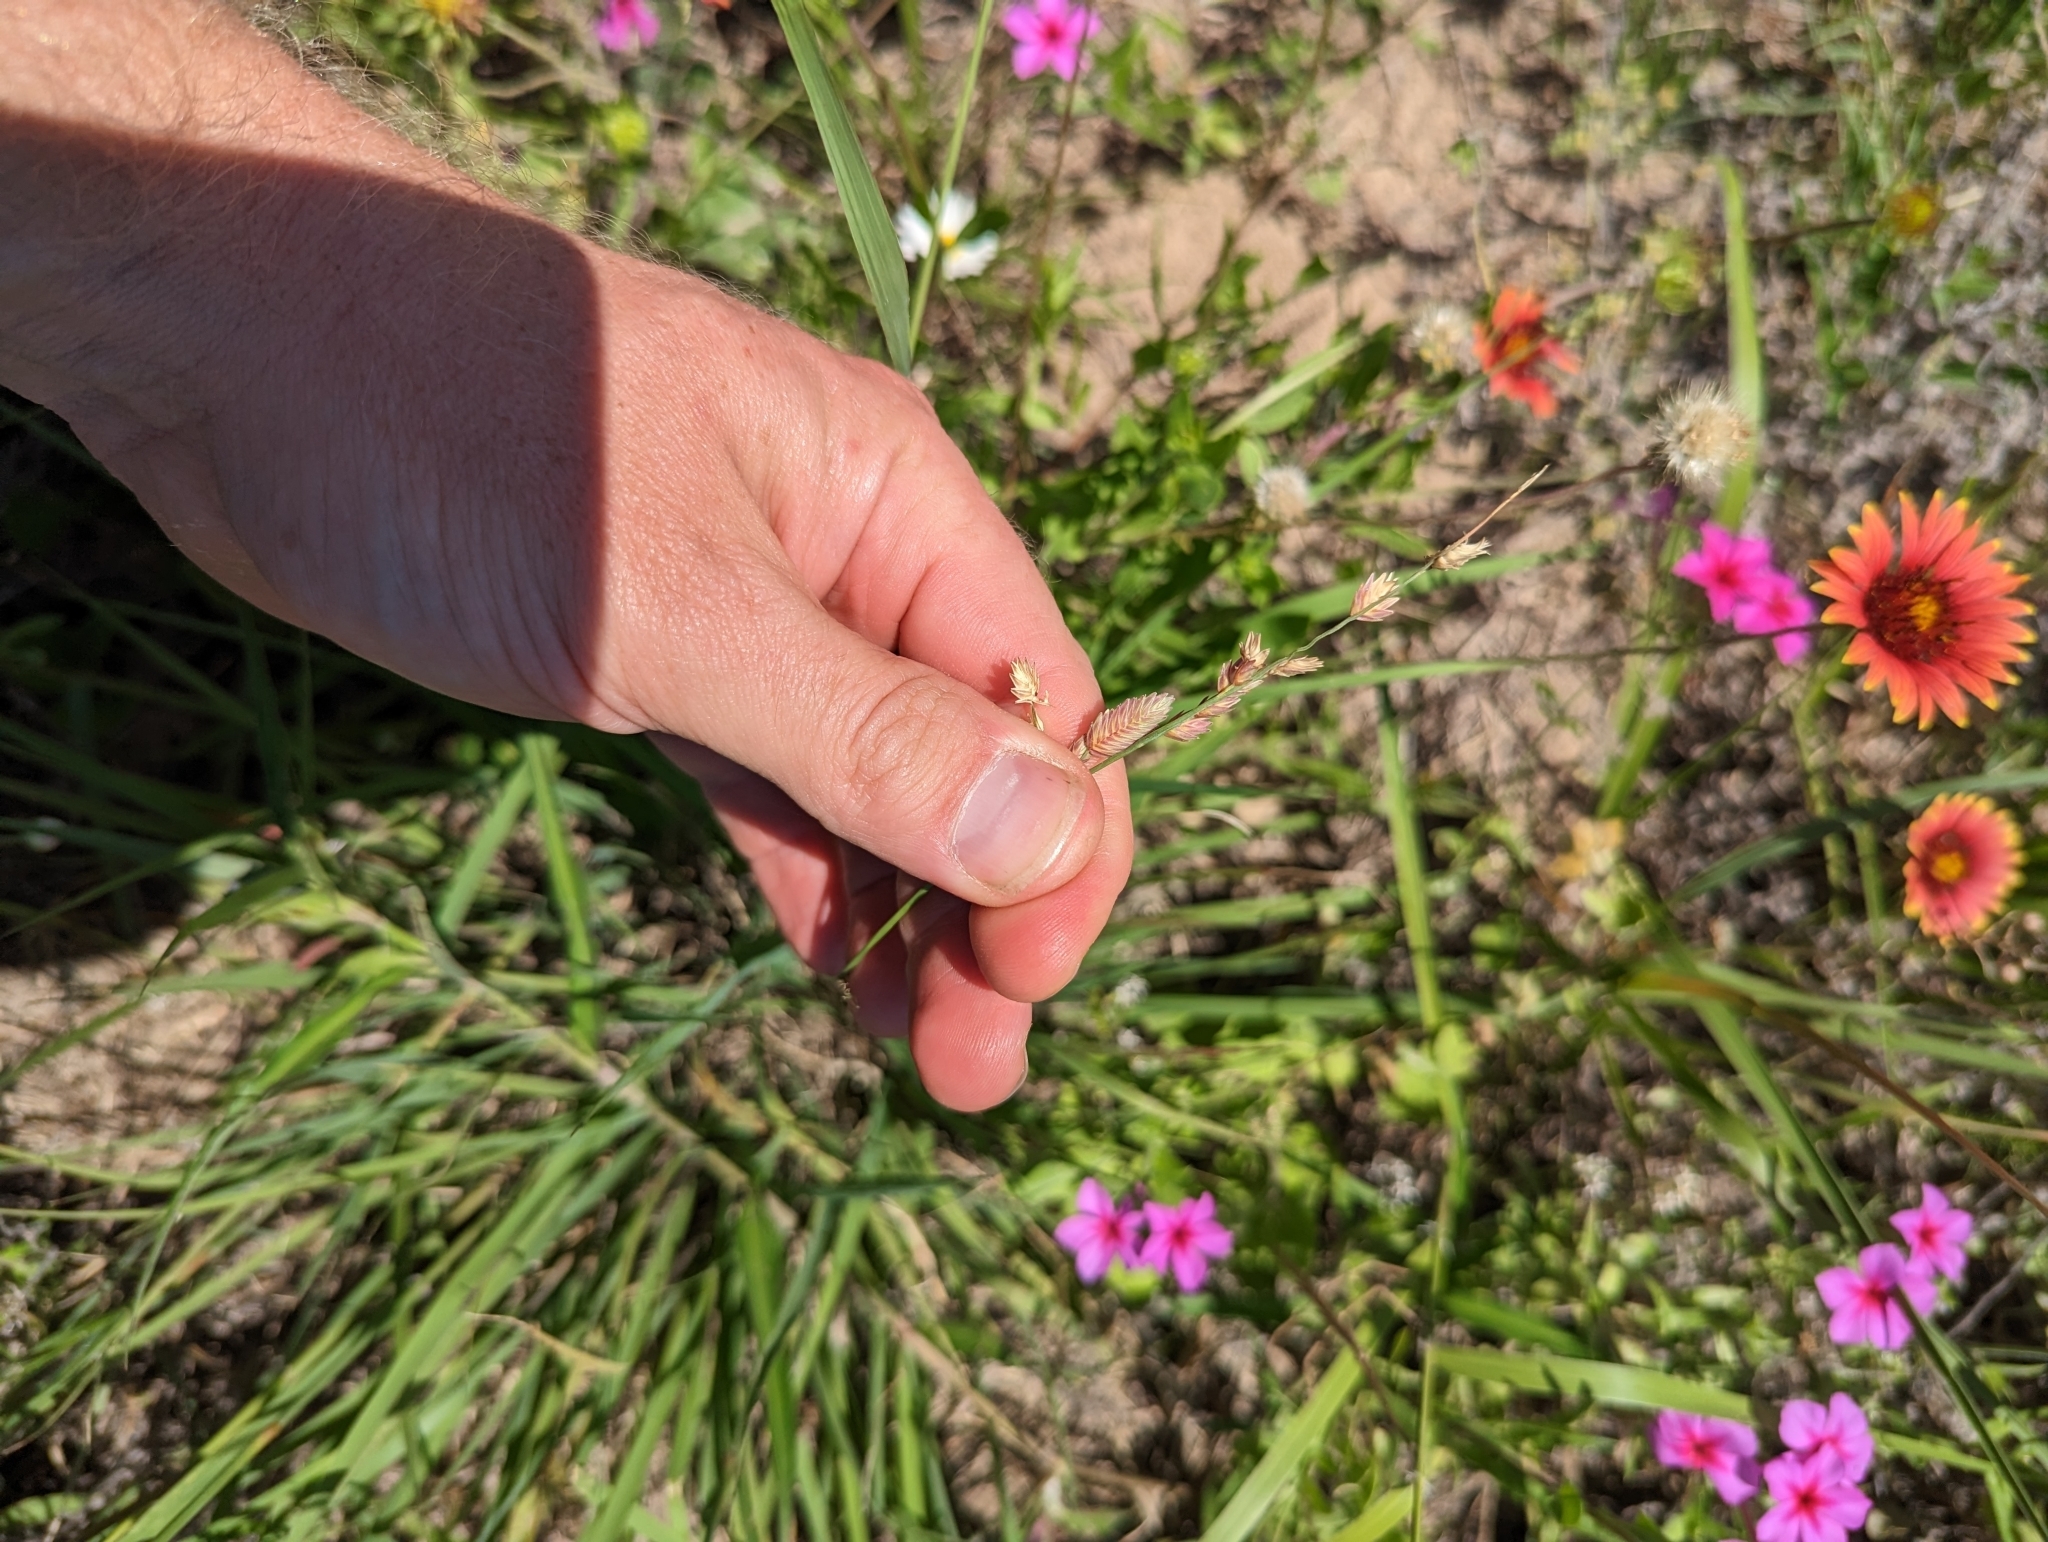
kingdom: Plantae
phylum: Tracheophyta
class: Liliopsida
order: Poales
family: Poaceae
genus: Eragrostis
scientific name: Eragrostis superba
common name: Wilman lovegrass
